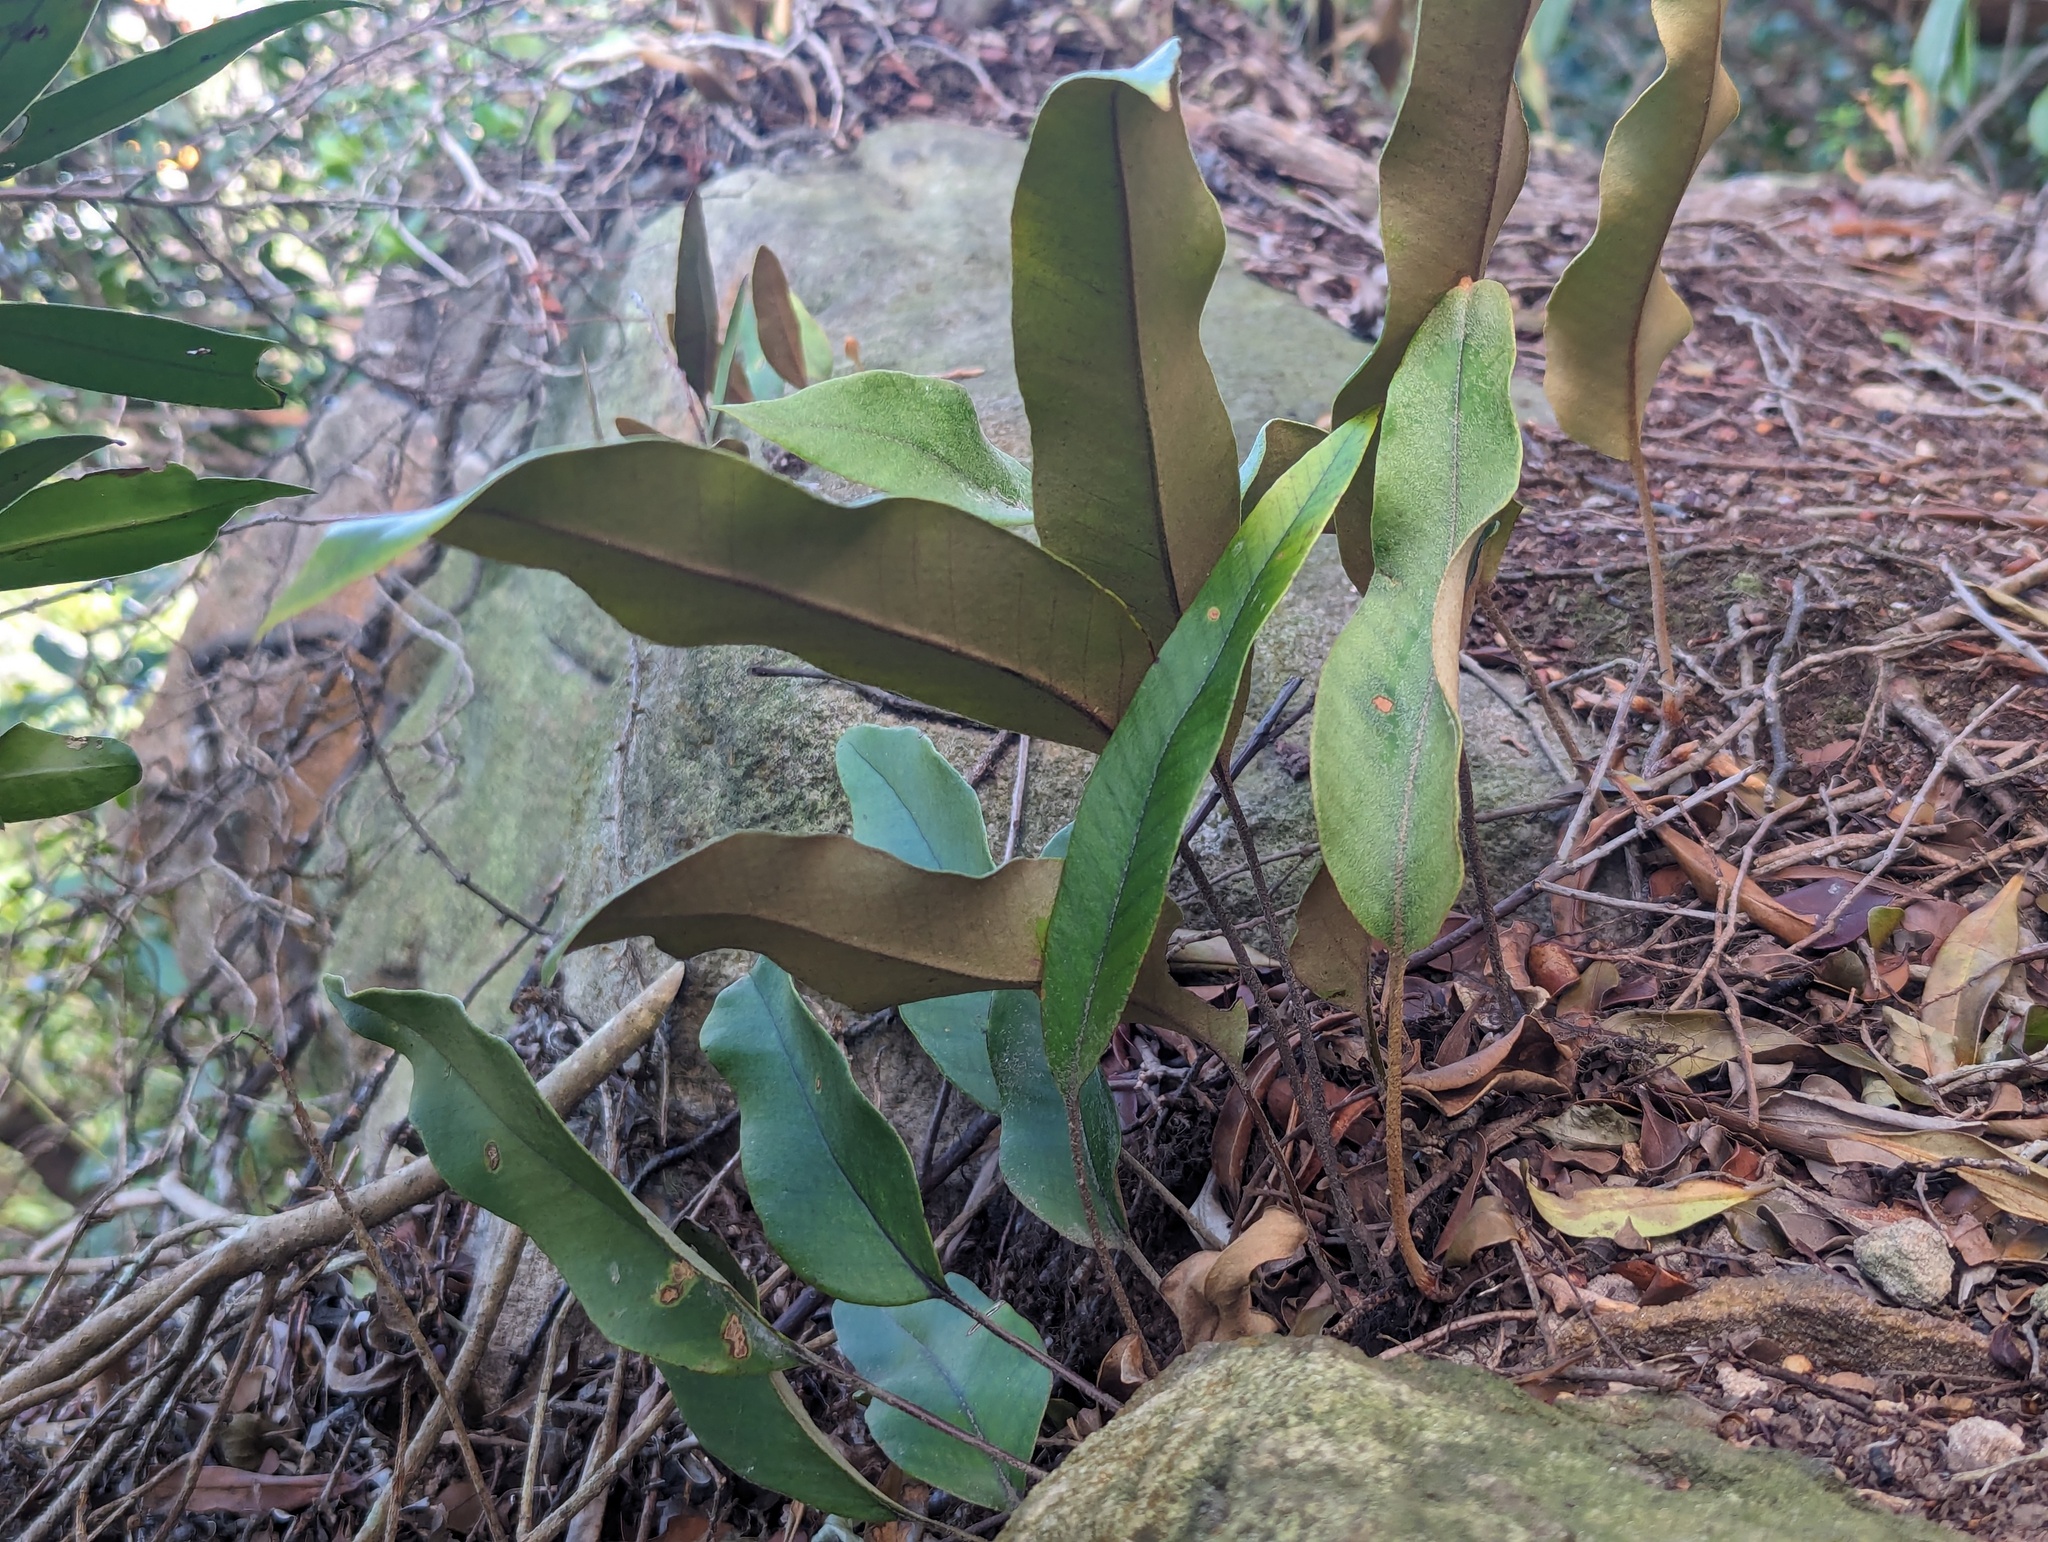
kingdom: Plantae
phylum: Tracheophyta
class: Polypodiopsida
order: Polypodiales
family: Polypodiaceae
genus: Pyrrosia
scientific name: Pyrrosia lingua
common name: Felt fern
